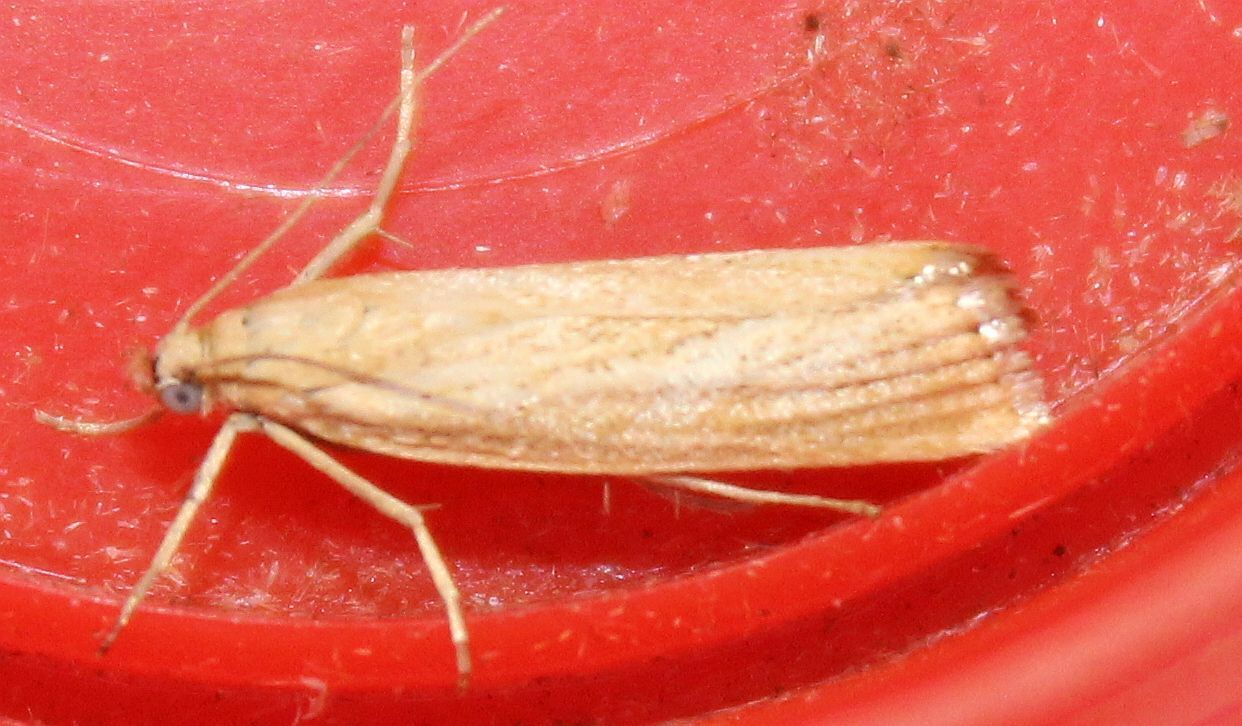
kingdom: Animalia
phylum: Arthropoda
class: Insecta
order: Lepidoptera
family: Crambidae
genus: Agriphila
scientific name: Agriphila straminella
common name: Straw grass-veneer
